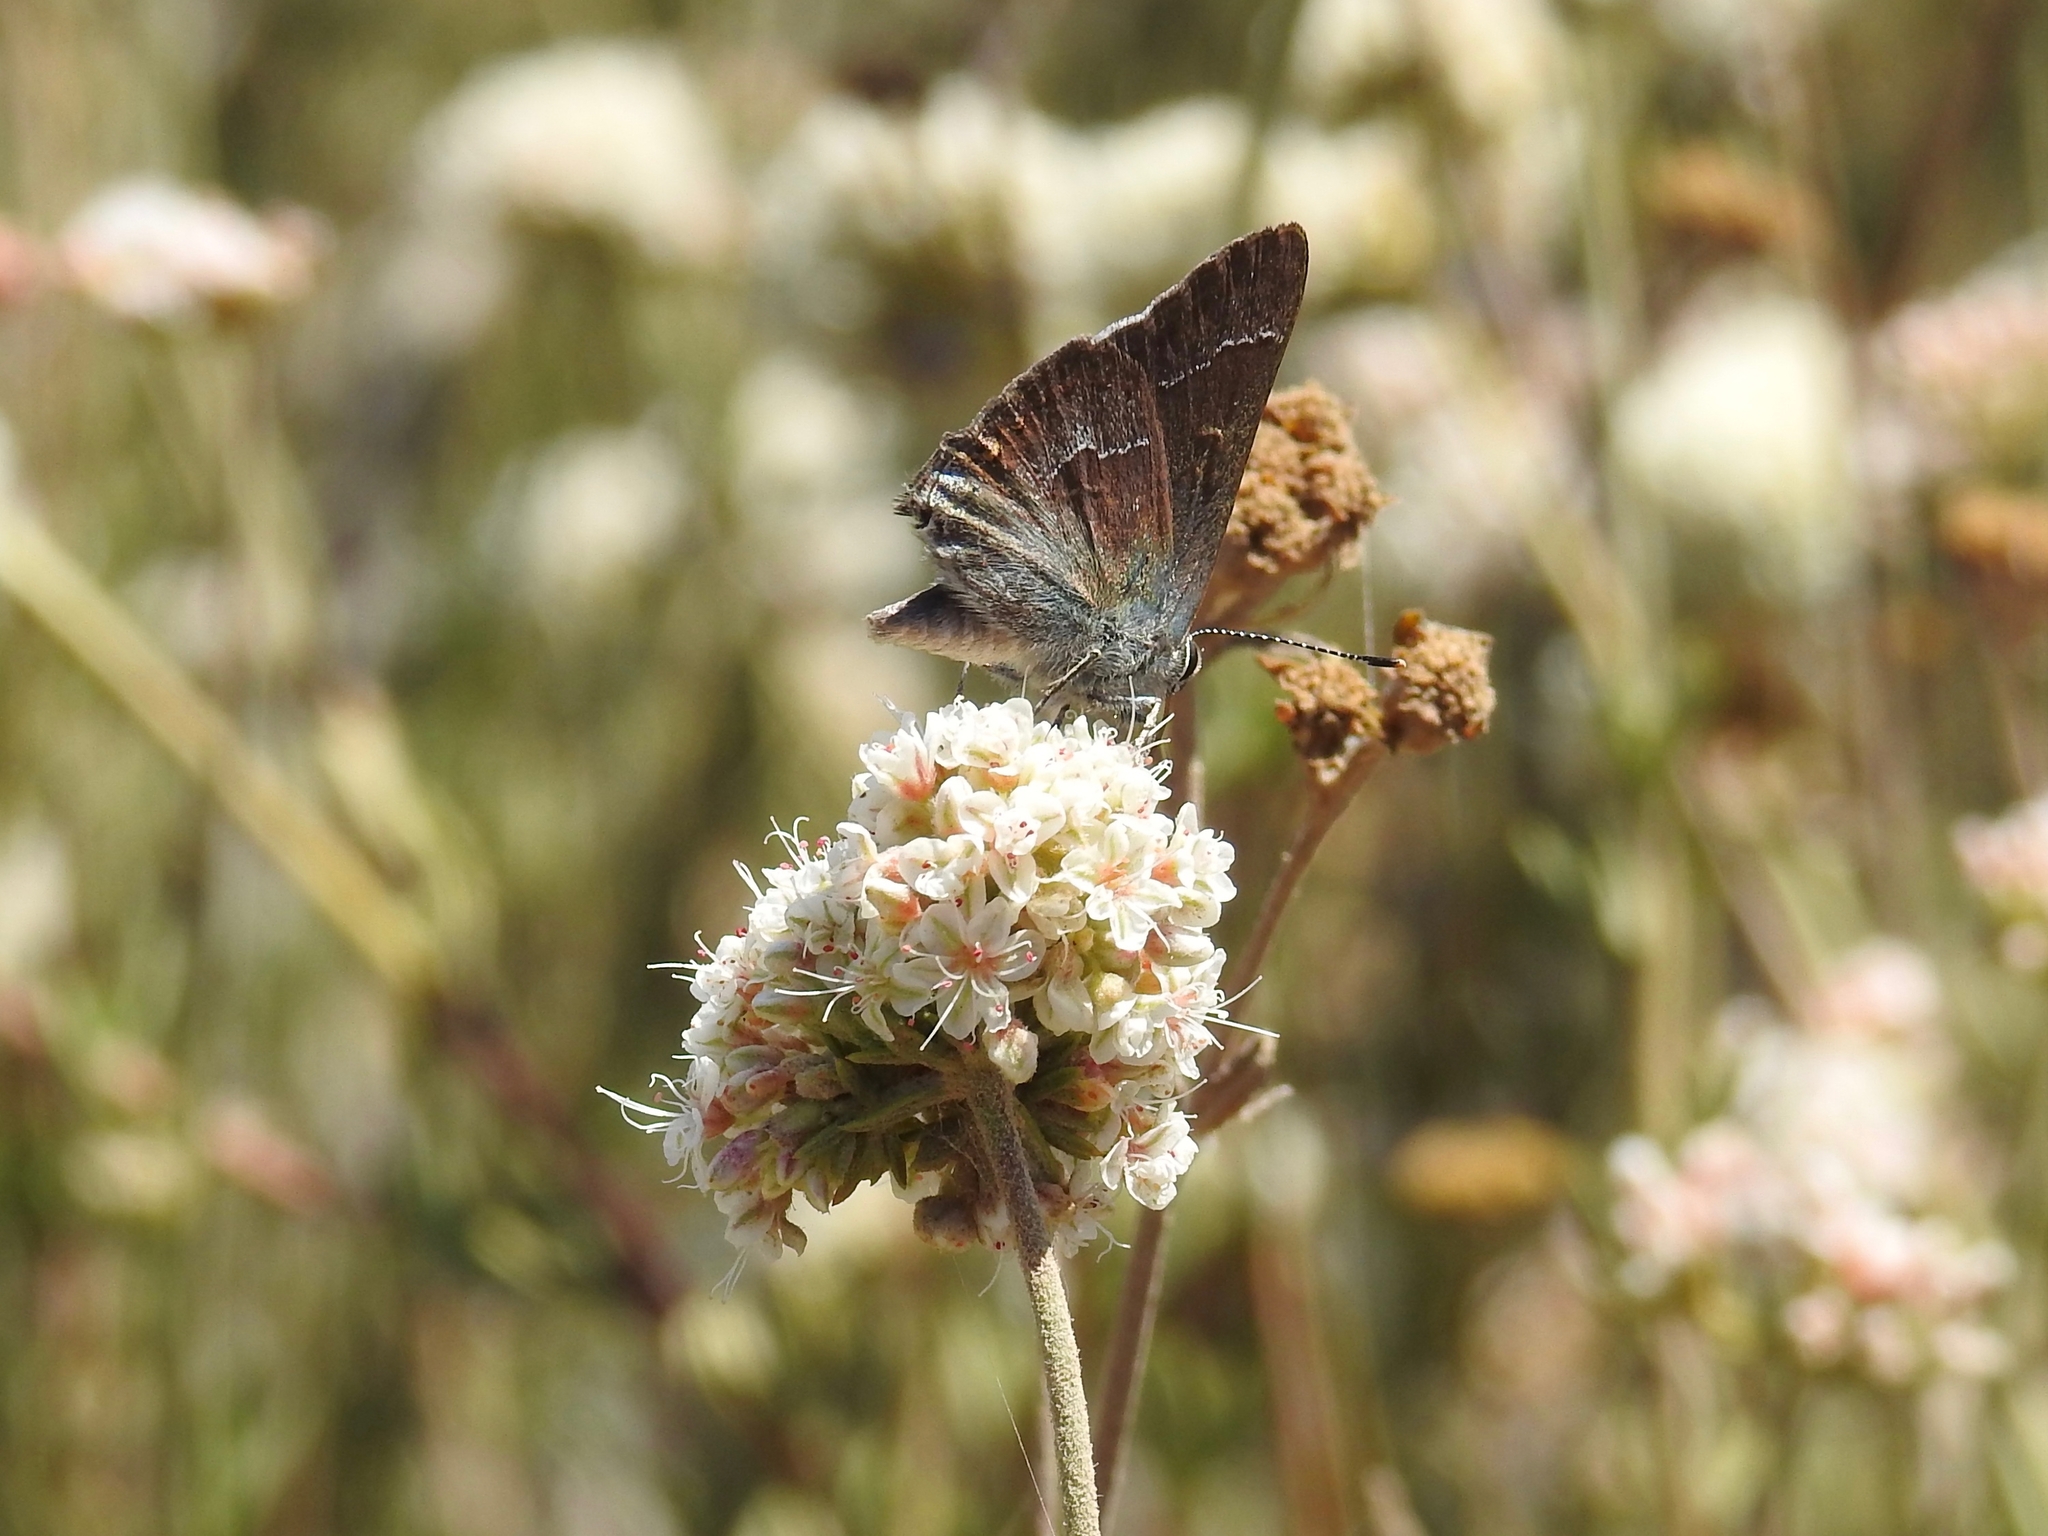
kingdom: Animalia
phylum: Arthropoda
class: Insecta
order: Lepidoptera
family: Lycaenidae
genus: Thecla
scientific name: Thecla tetra
